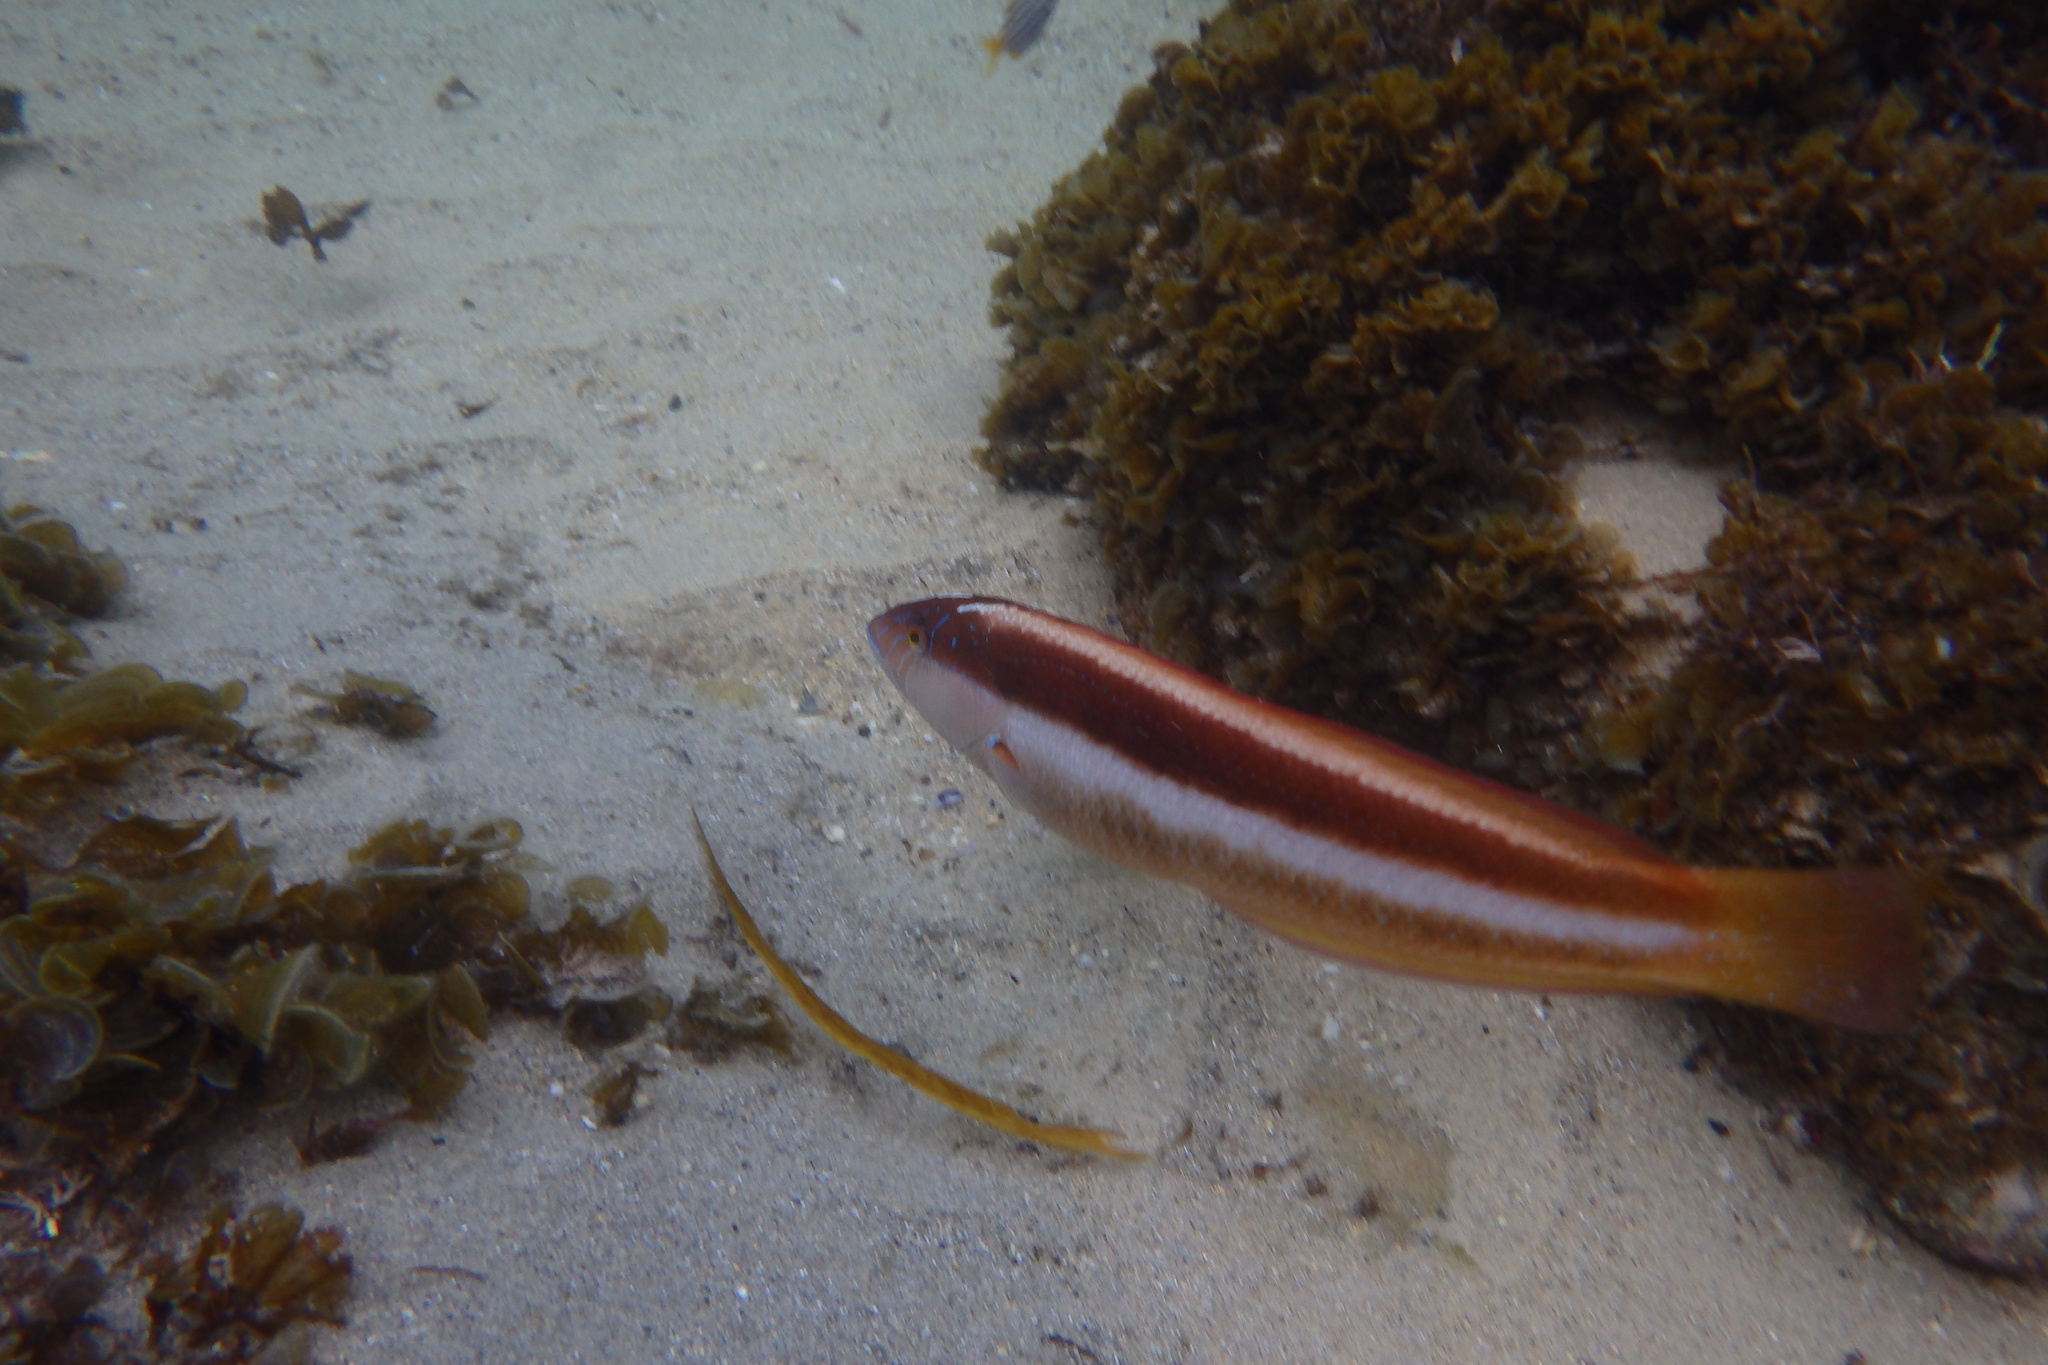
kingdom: Animalia
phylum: Chordata
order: Perciformes
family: Labridae
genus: Ophthalmolepis
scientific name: Ophthalmolepis lineolata
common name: Maori wrasse
